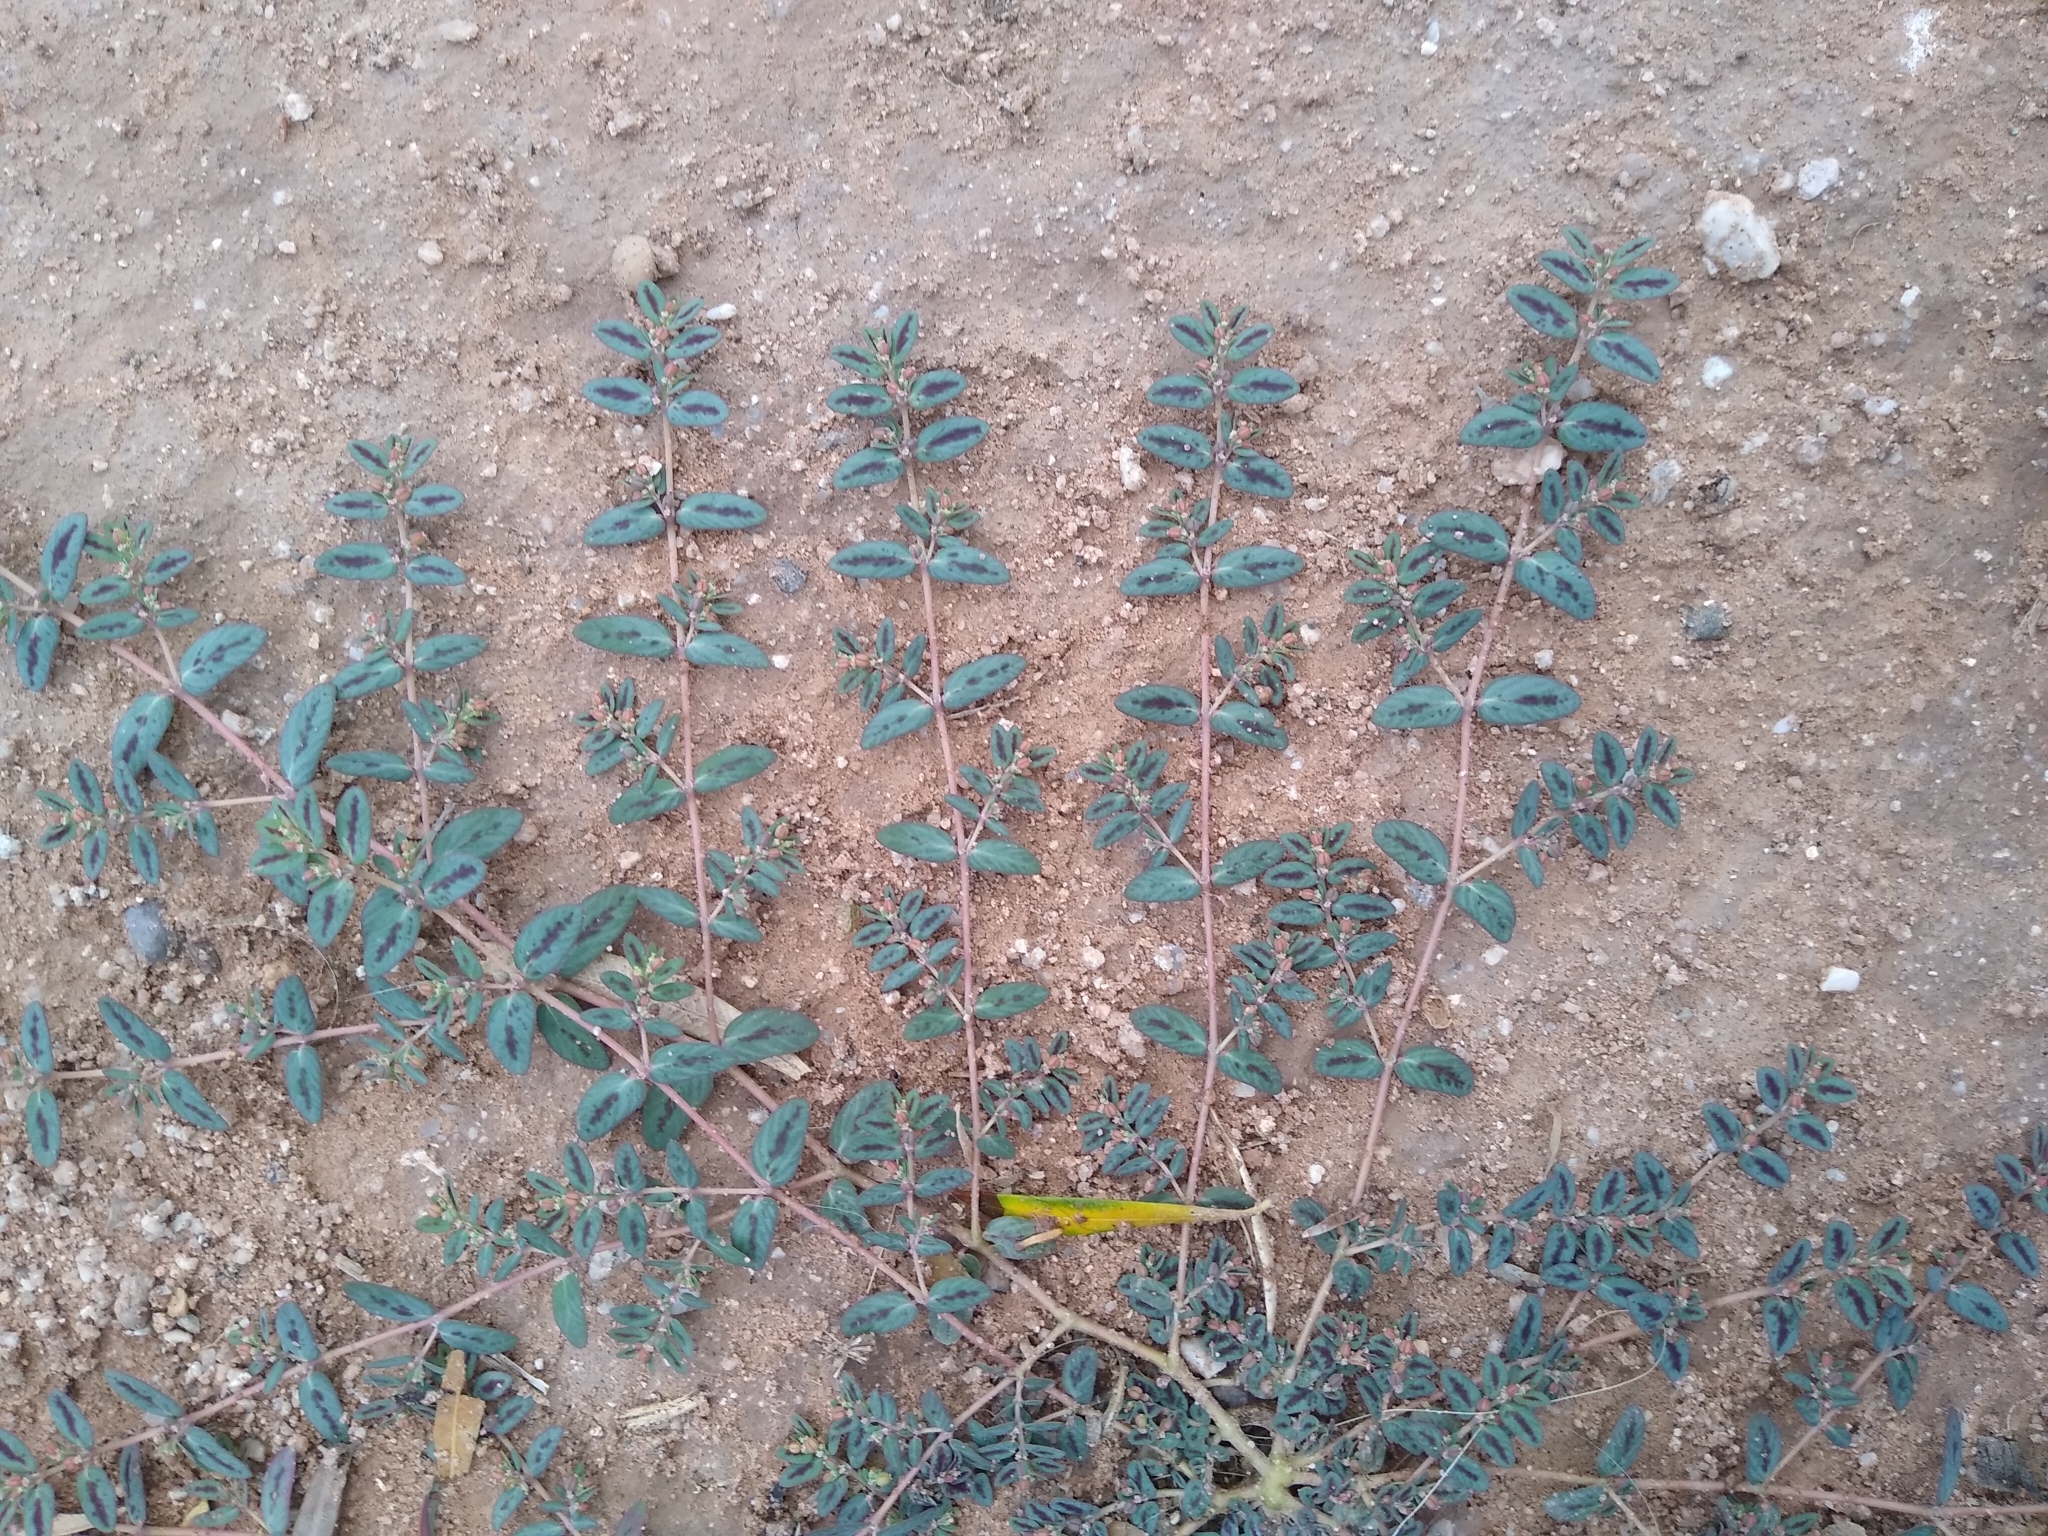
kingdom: Plantae
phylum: Tracheophyta
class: Magnoliopsida
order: Malpighiales
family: Euphorbiaceae
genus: Euphorbia
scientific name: Euphorbia abramsiana
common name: Abram's spurge
